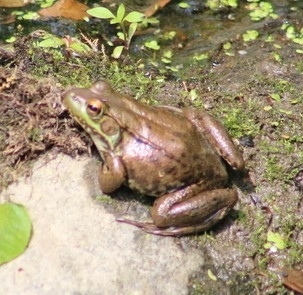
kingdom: Animalia
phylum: Chordata
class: Amphibia
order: Anura
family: Ranidae
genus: Lithobates
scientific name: Lithobates clamitans
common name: Green frog
